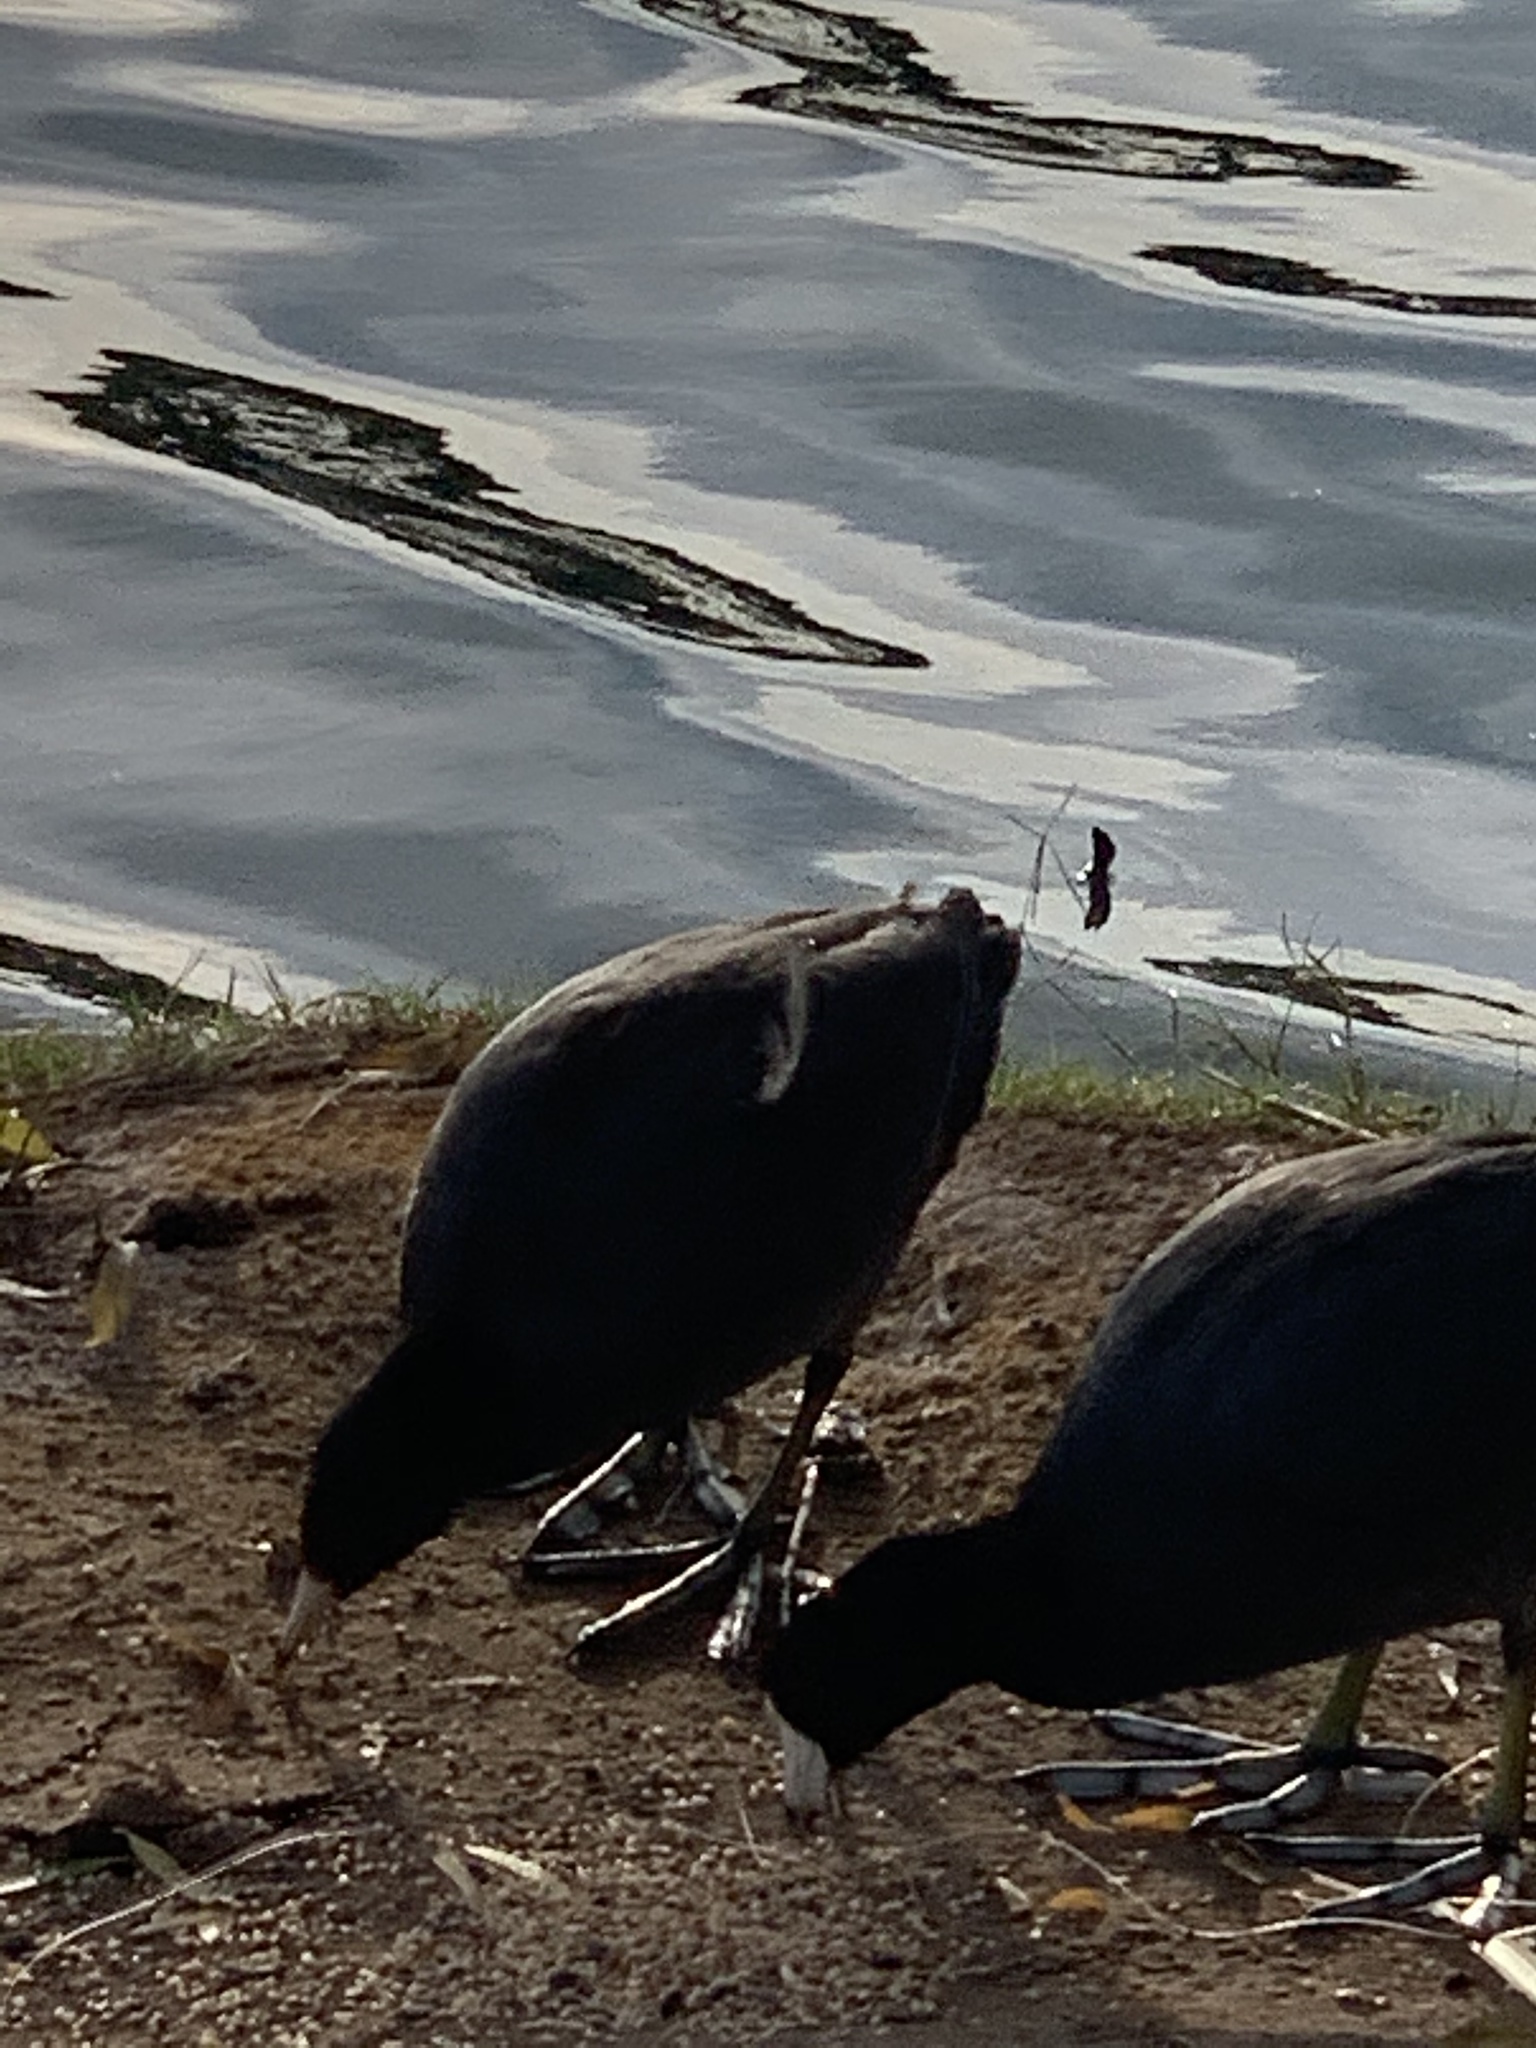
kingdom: Animalia
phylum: Chordata
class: Aves
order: Gruiformes
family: Rallidae
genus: Fulica
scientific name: Fulica americana
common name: American coot
